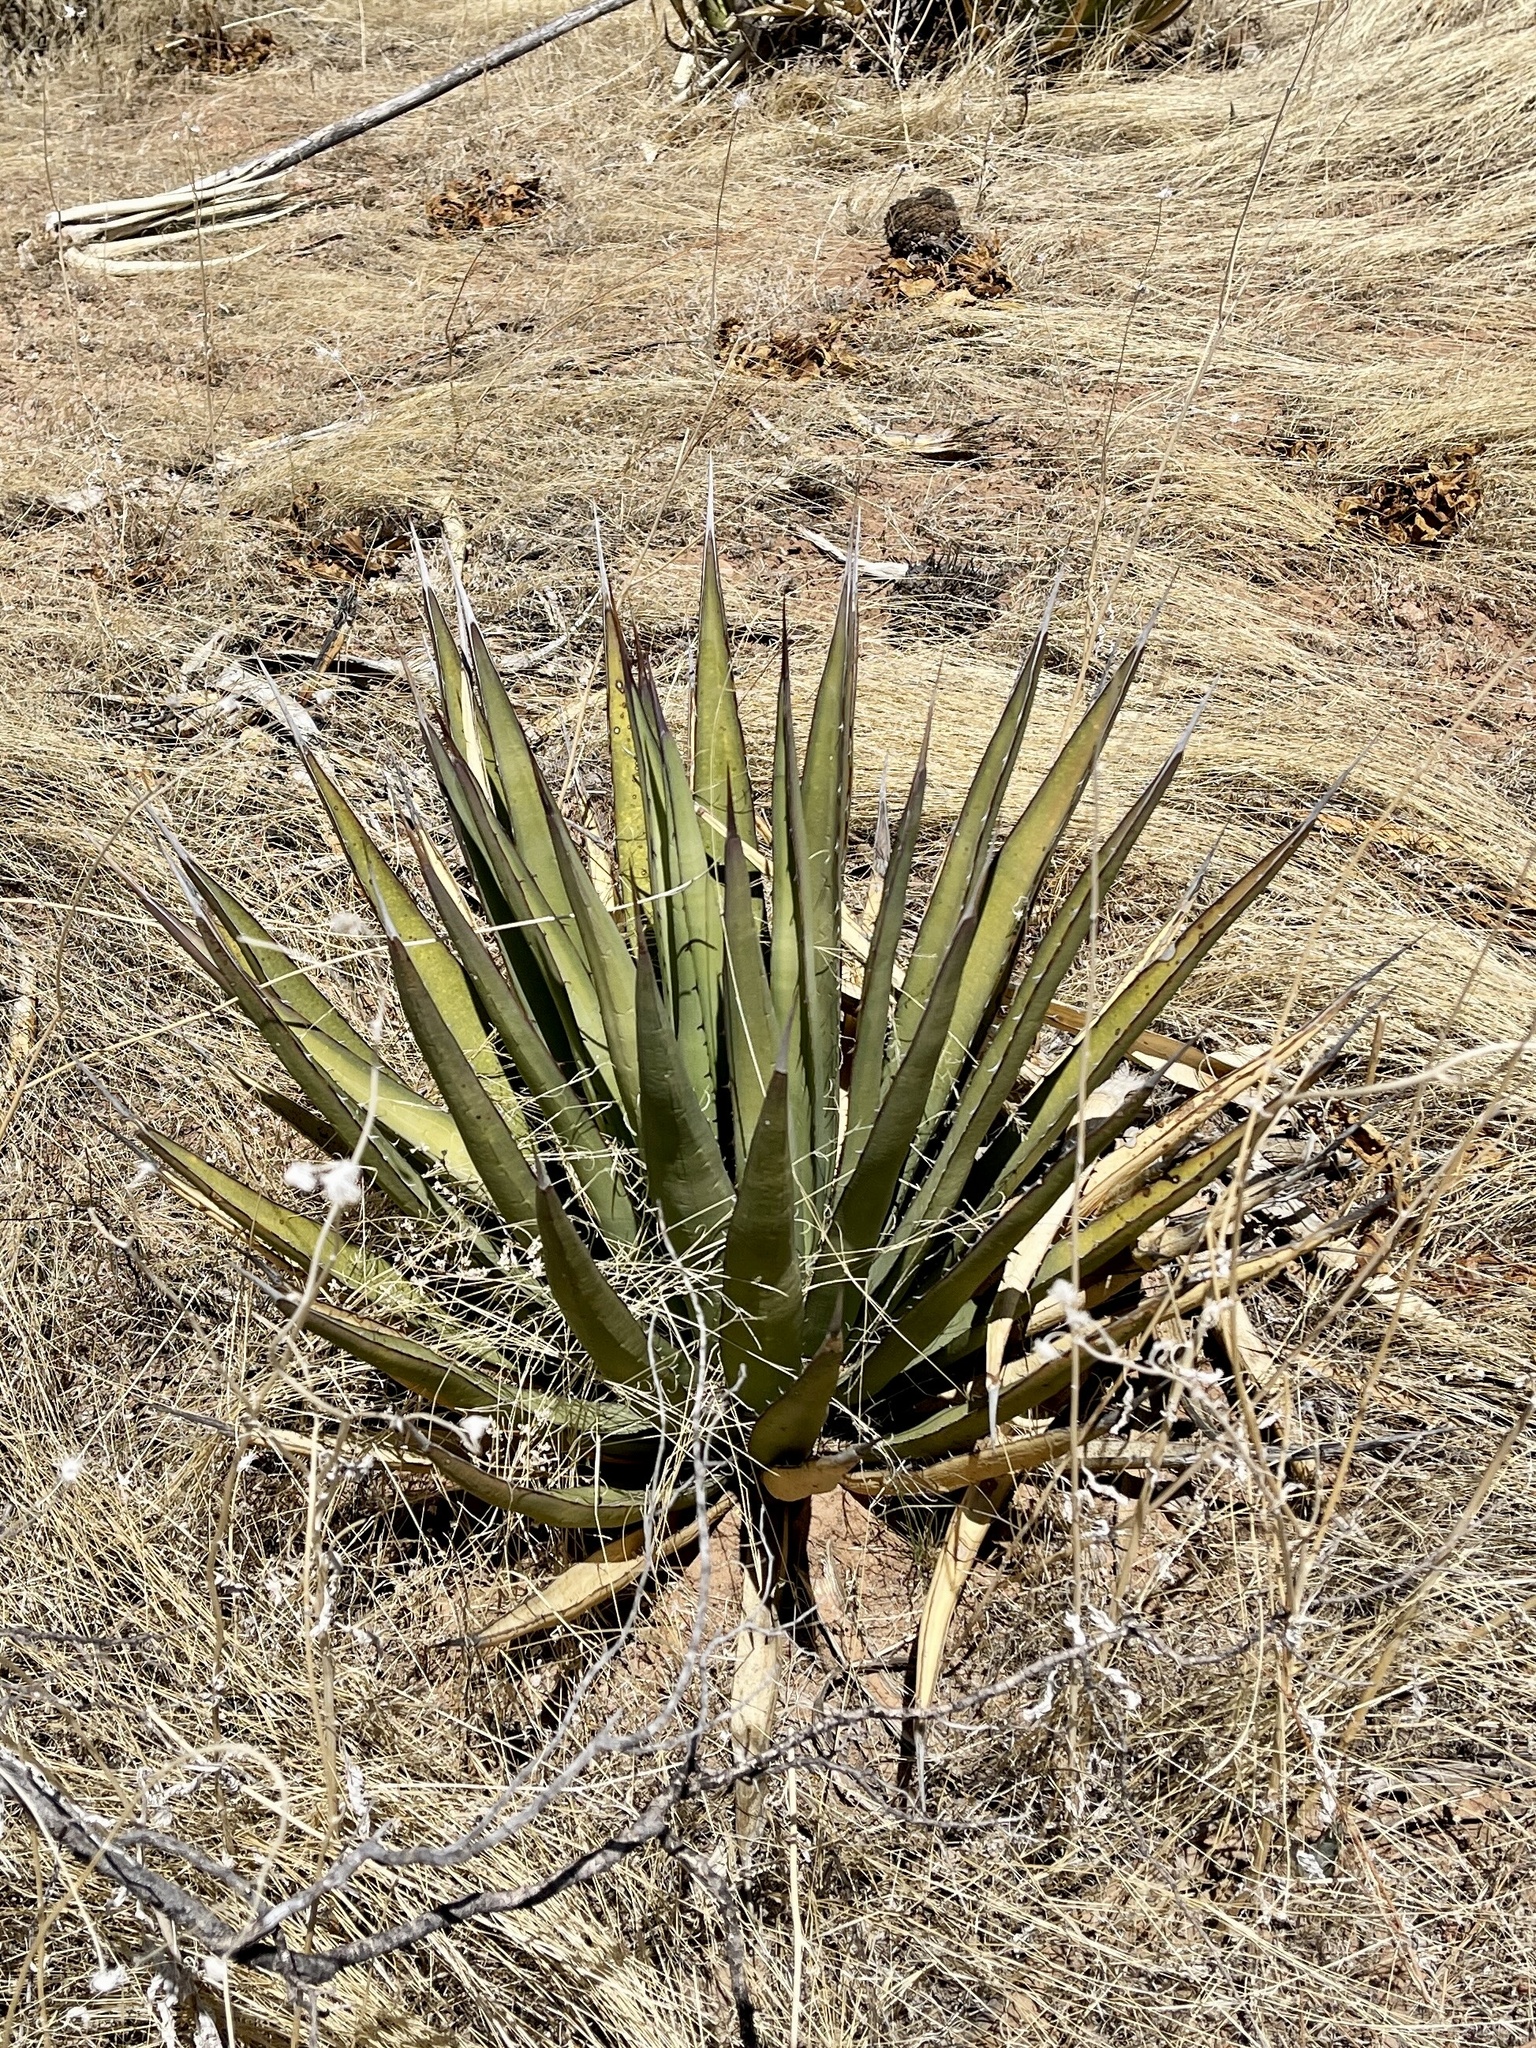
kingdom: Plantae
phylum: Tracheophyta
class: Liliopsida
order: Asparagales
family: Asparagaceae
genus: Agave
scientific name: Agave lechuguilla
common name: Lecheguilla agave
